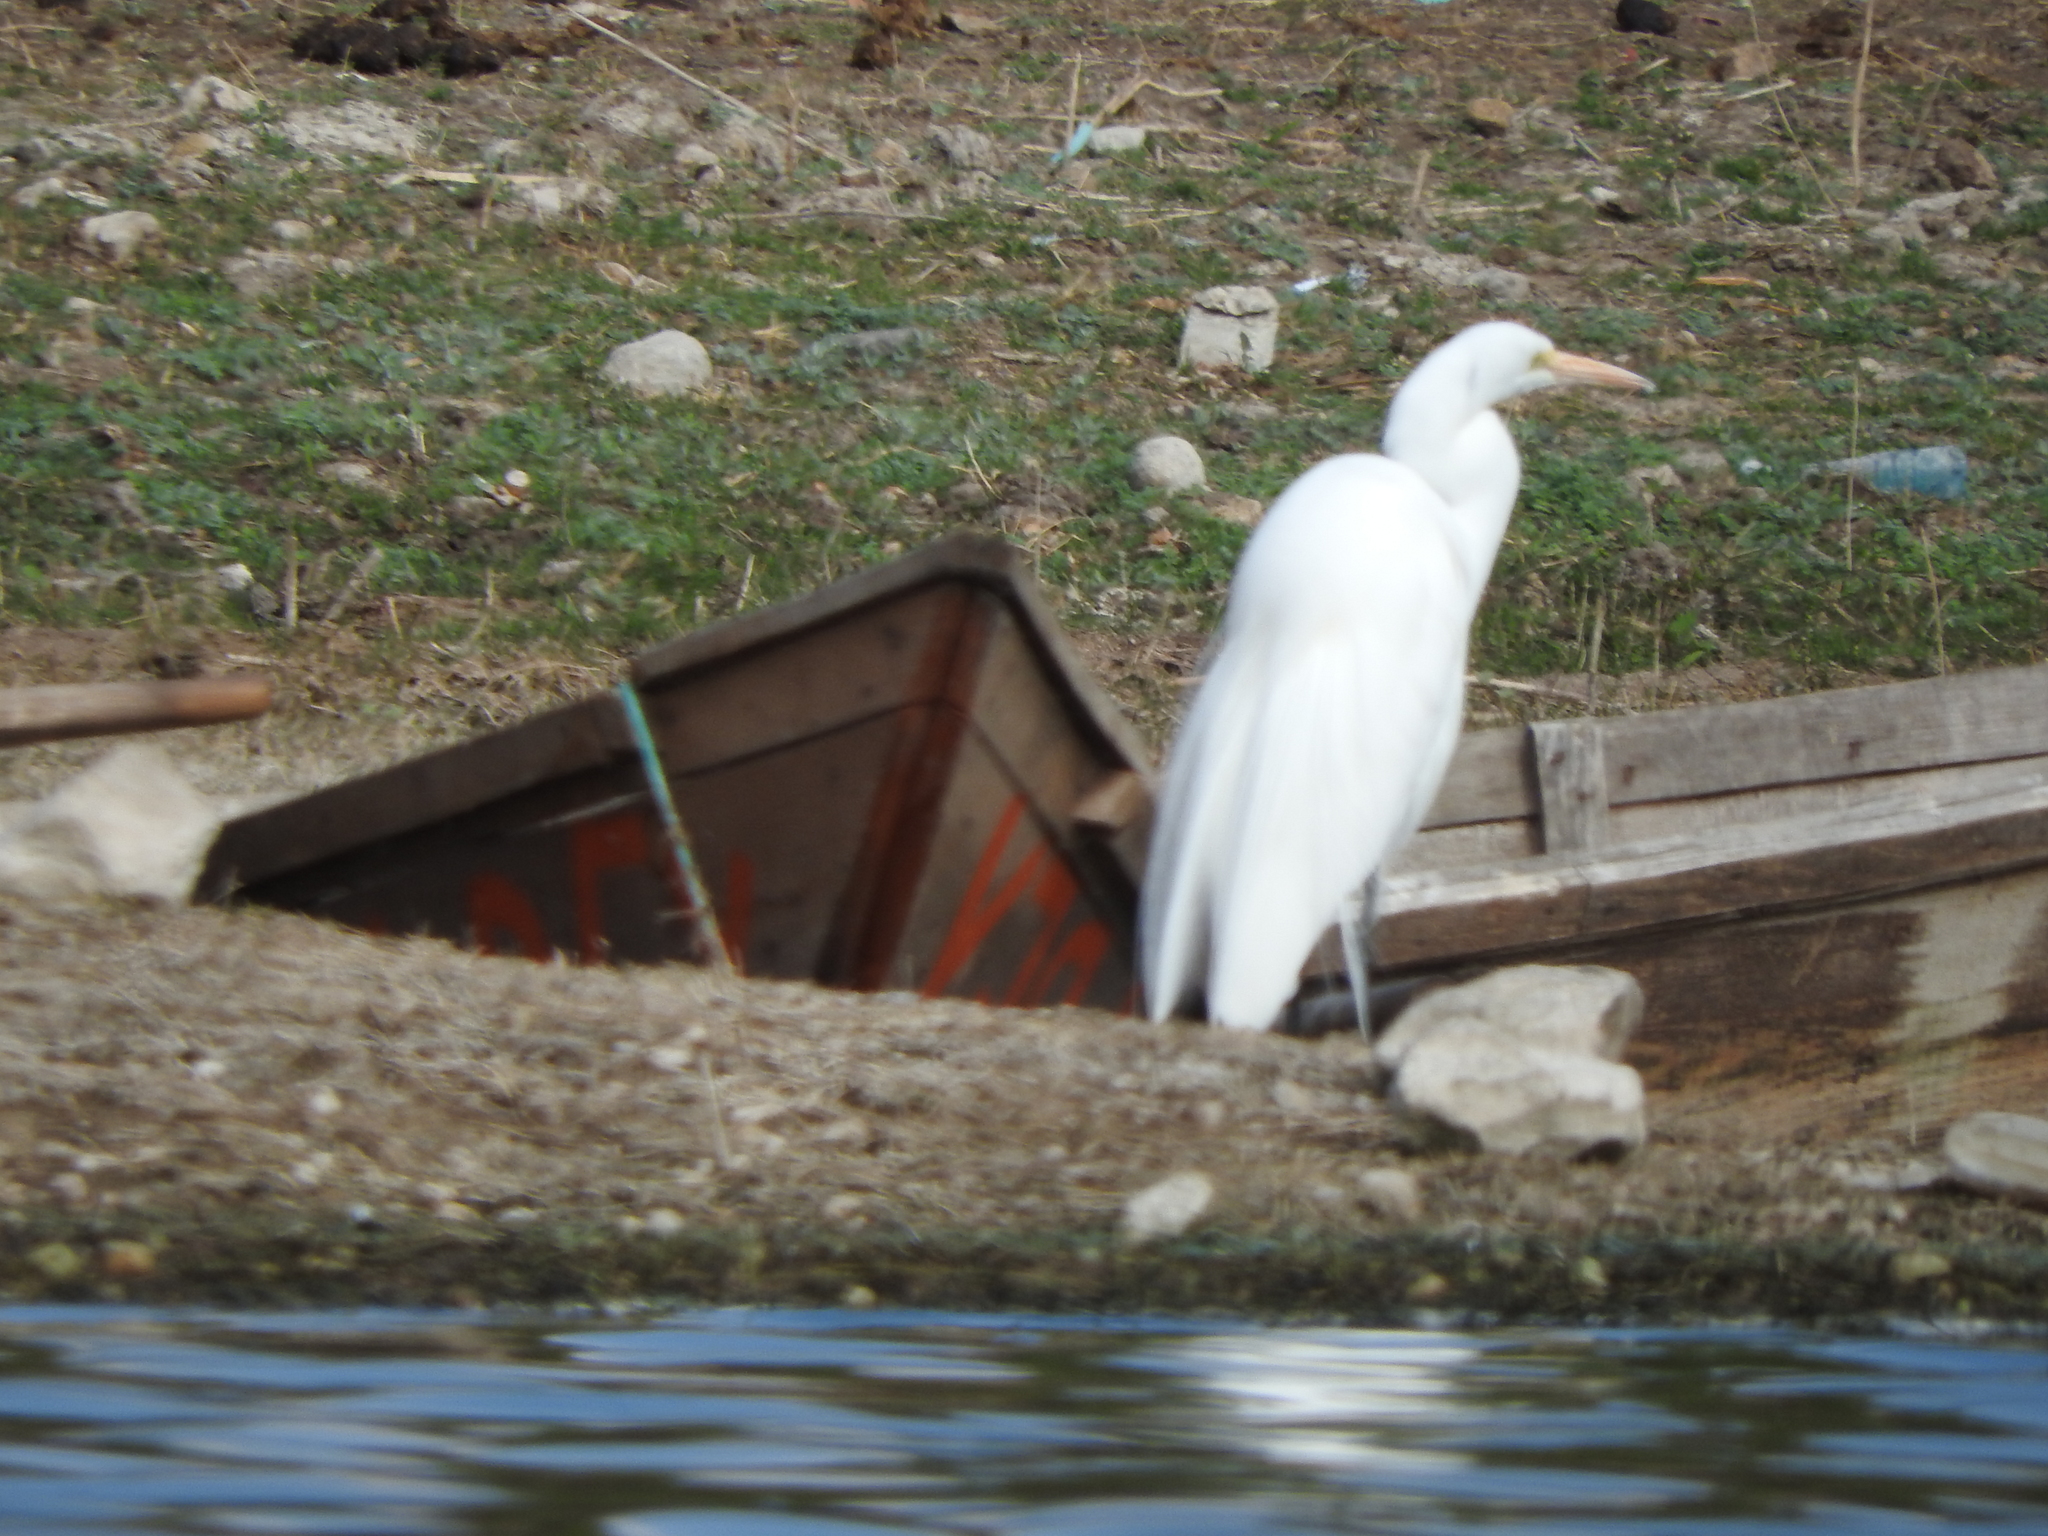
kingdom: Animalia
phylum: Chordata
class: Aves
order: Pelecaniformes
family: Ardeidae
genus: Ardea
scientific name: Ardea alba
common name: Great egret
